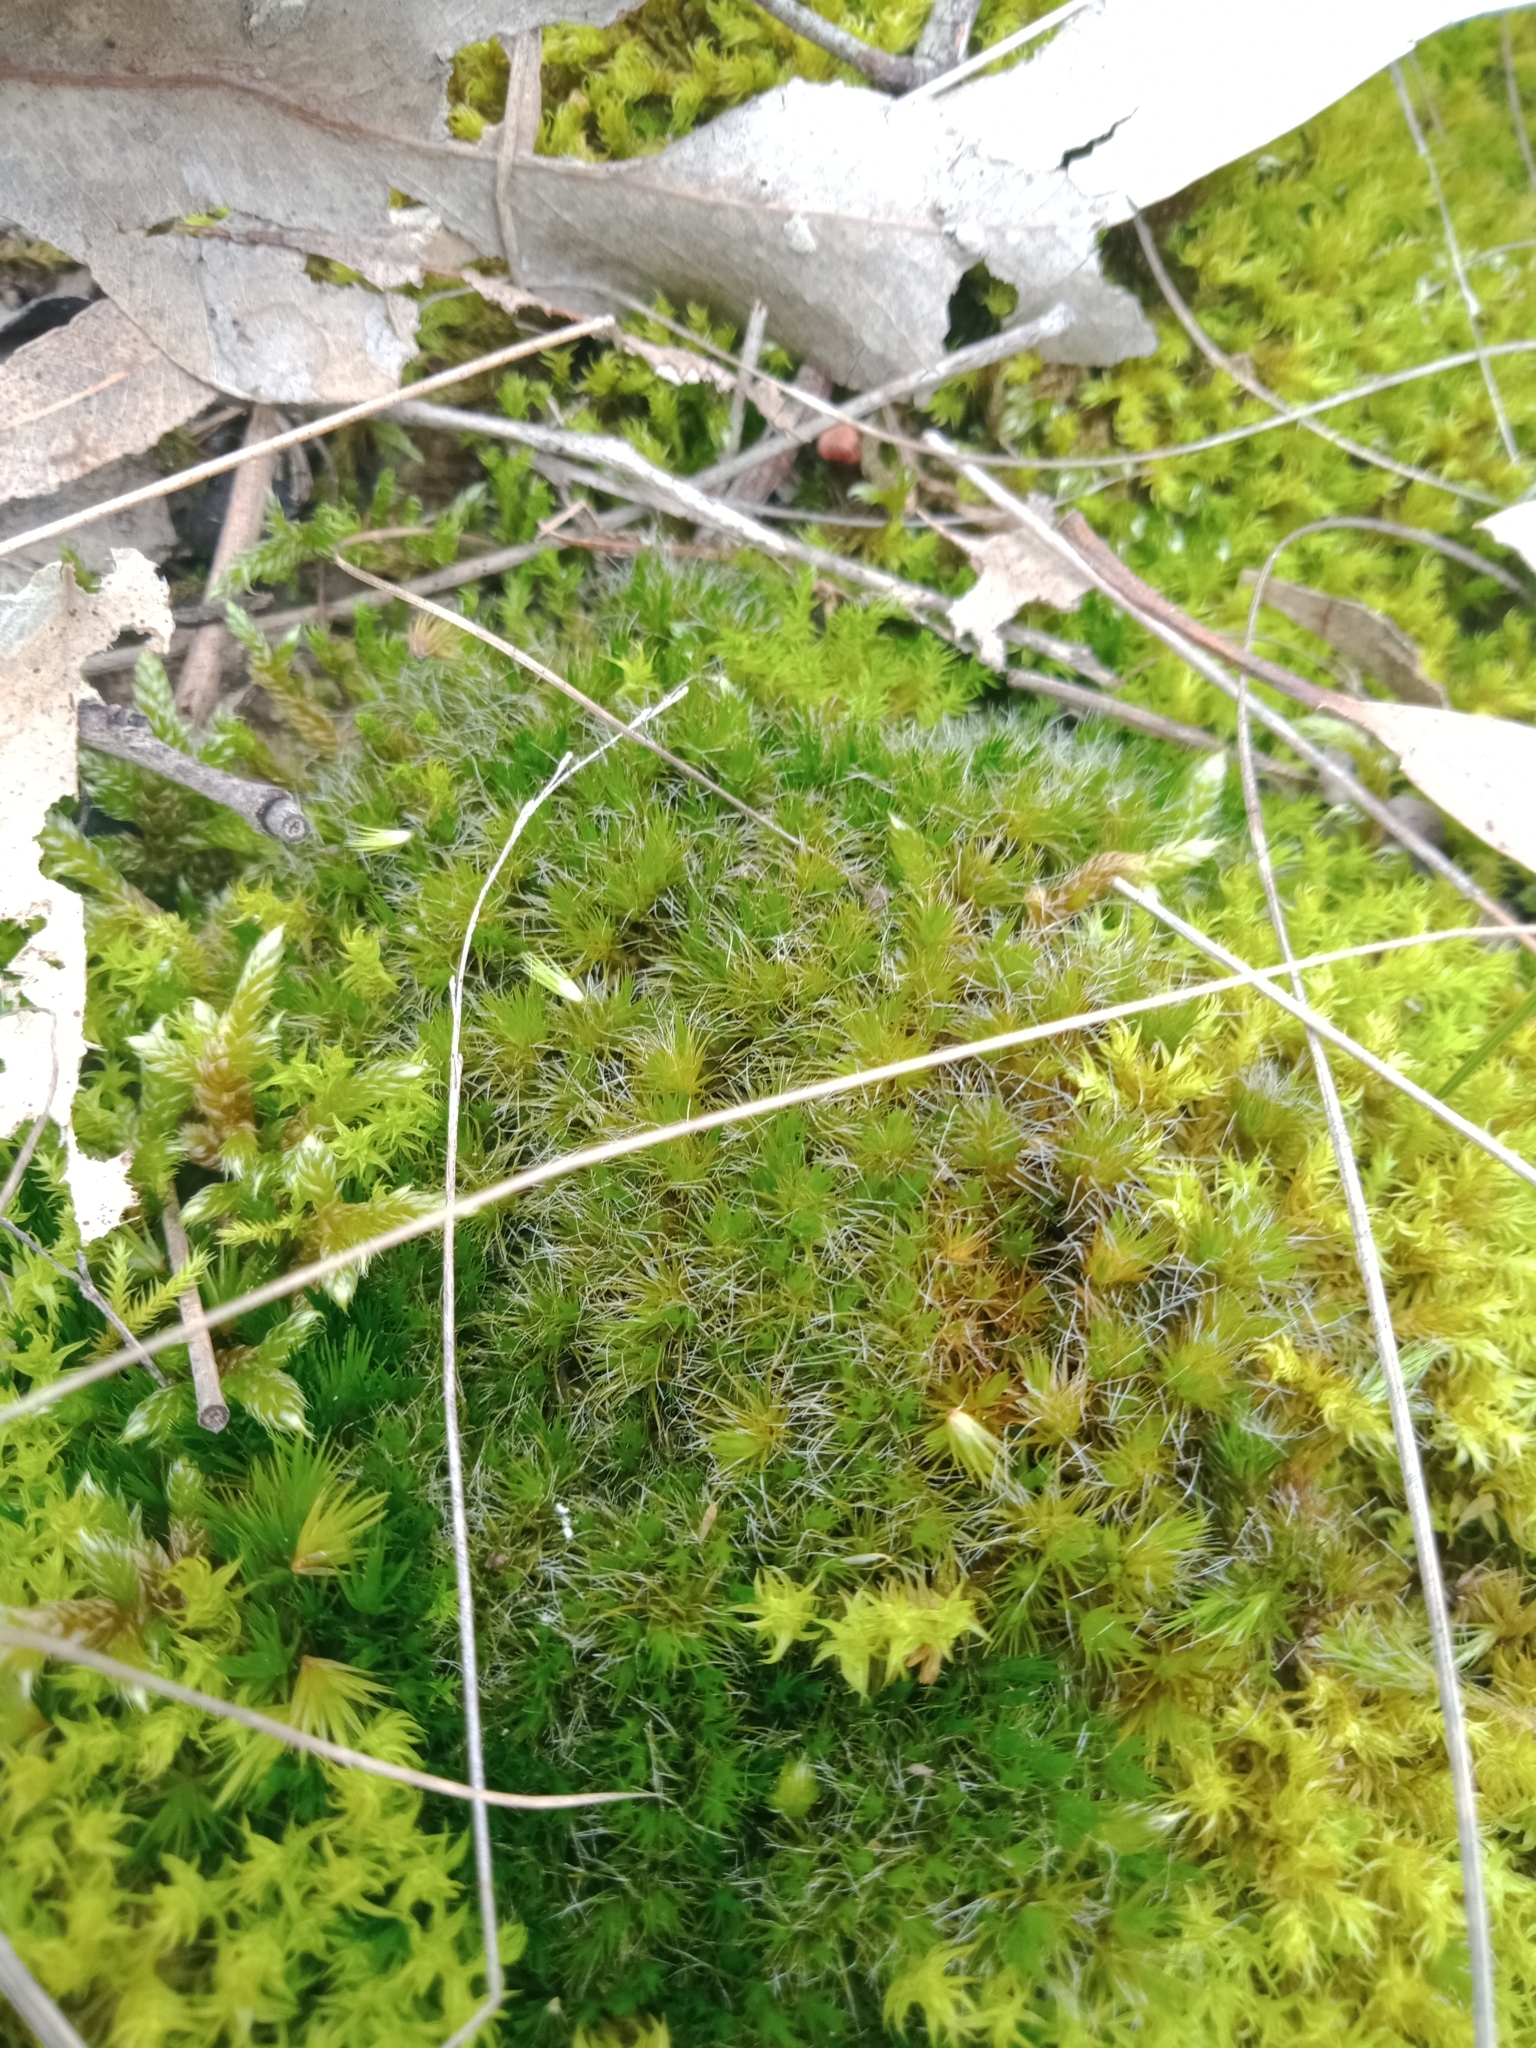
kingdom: Plantae
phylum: Bryophyta
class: Bryopsida
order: Dicranales
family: Leucobryaceae
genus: Campylopus
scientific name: Campylopus introflexus
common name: Heath star moss
